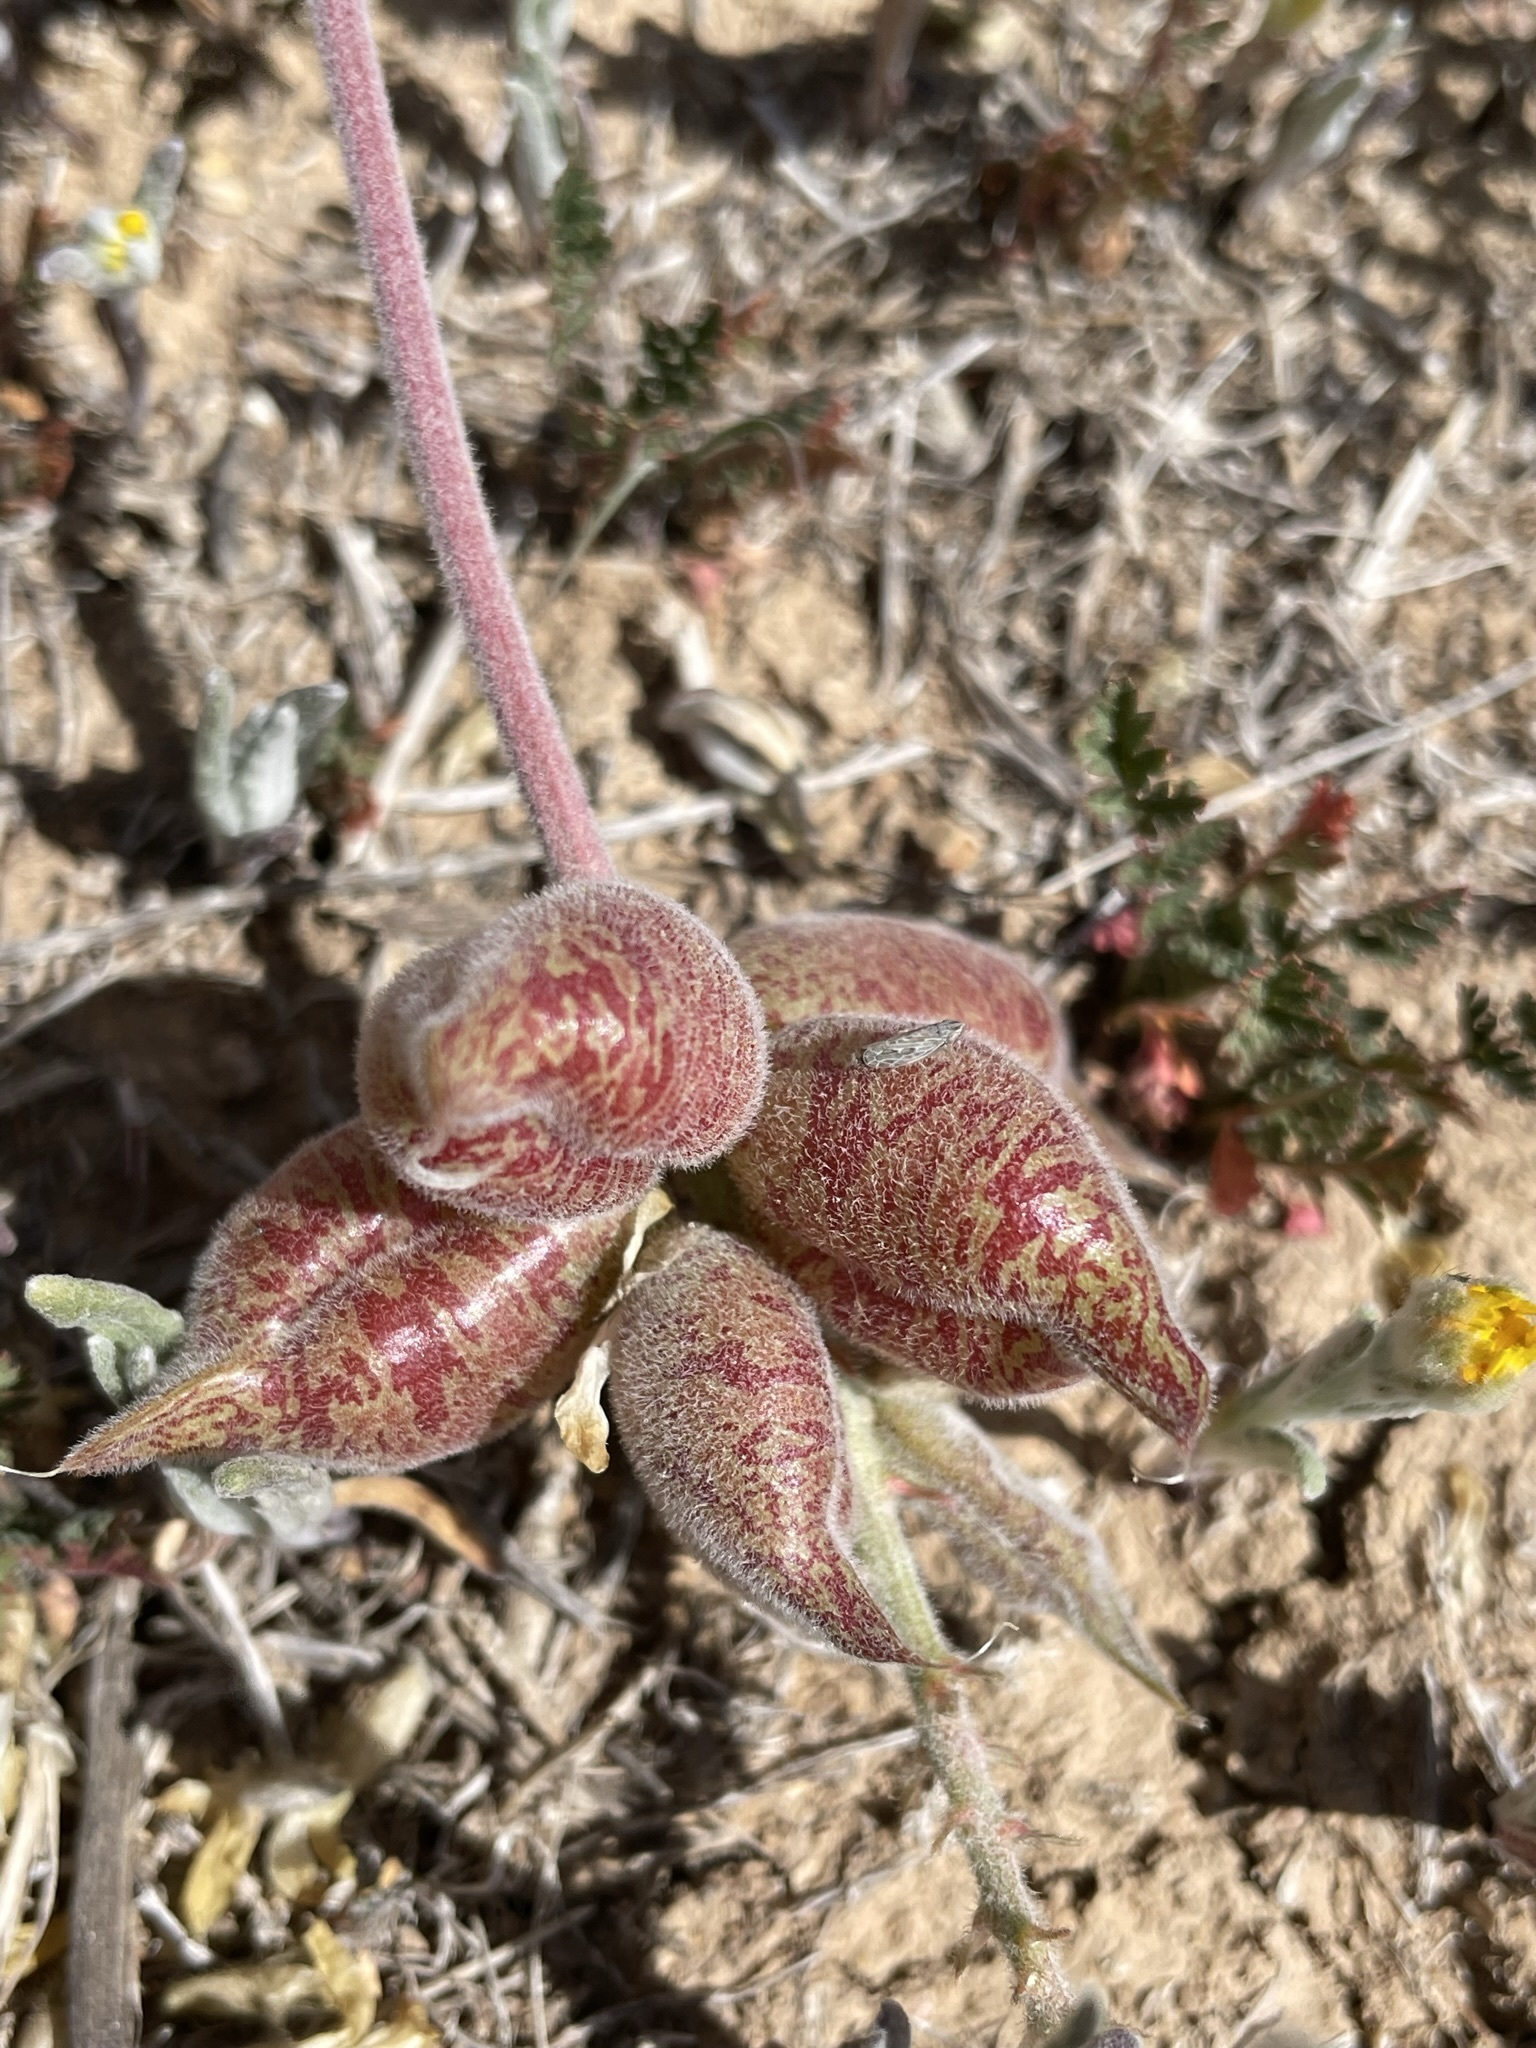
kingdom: Plantae
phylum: Tracheophyta
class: Magnoliopsida
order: Fabales
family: Fabaceae
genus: Astragalus
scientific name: Astragalus lentiginosus
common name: Freckled milkvetch
